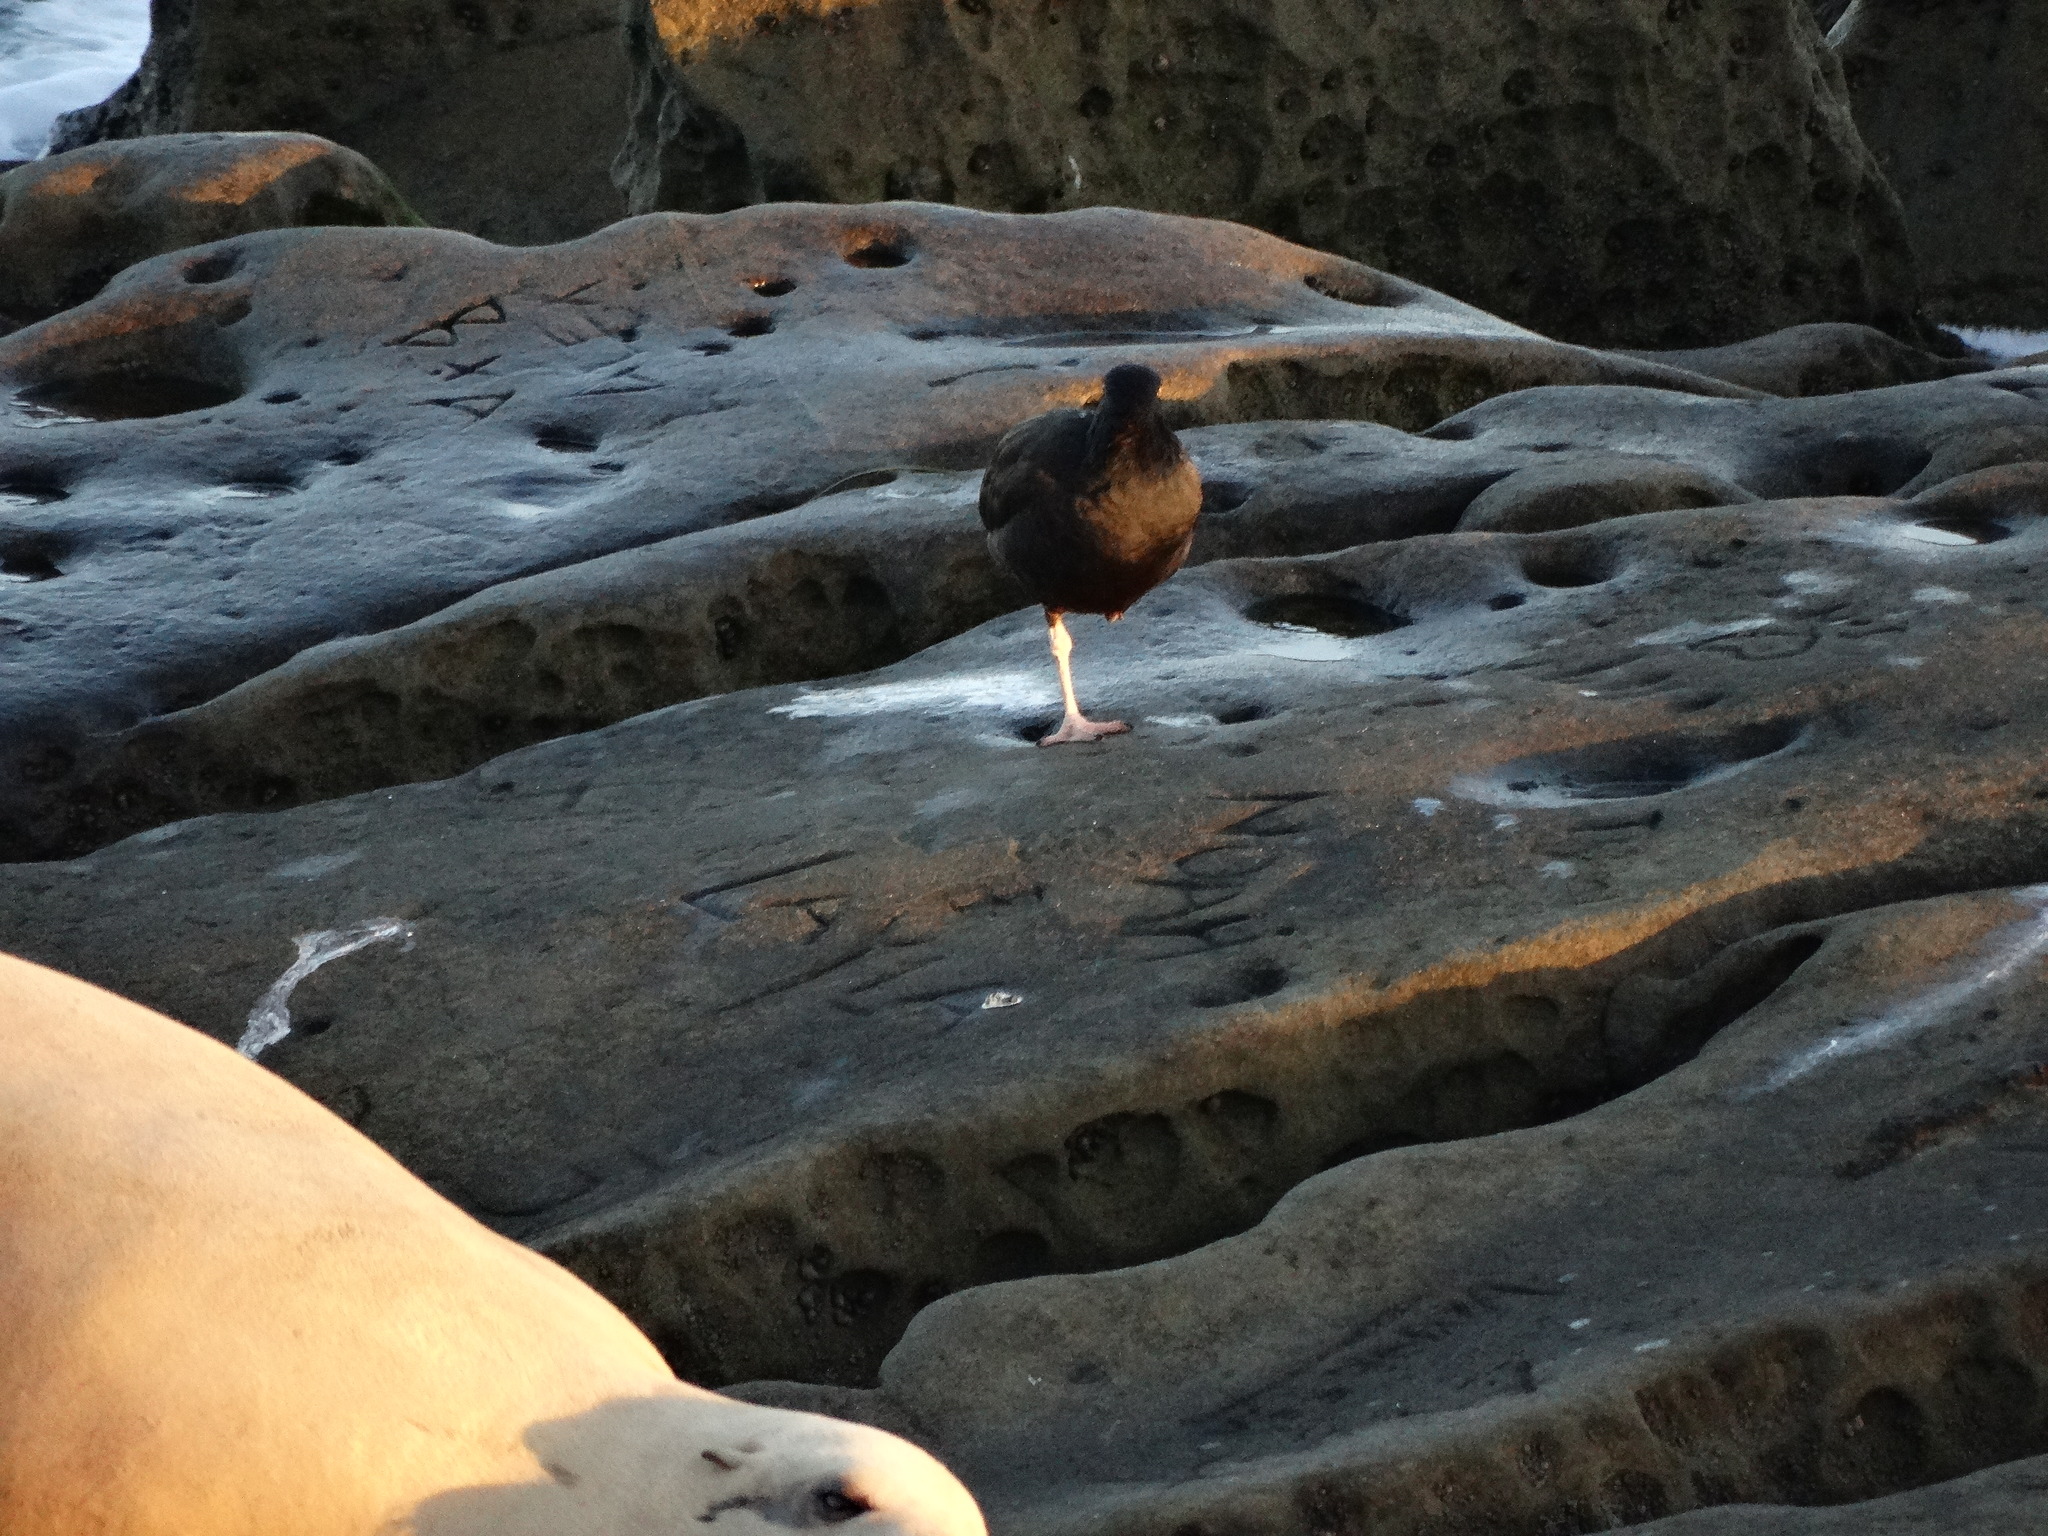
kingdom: Animalia
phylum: Chordata
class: Aves
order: Charadriiformes
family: Haematopodidae
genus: Haematopus
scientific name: Haematopus bachmani
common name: Black oystercatcher
